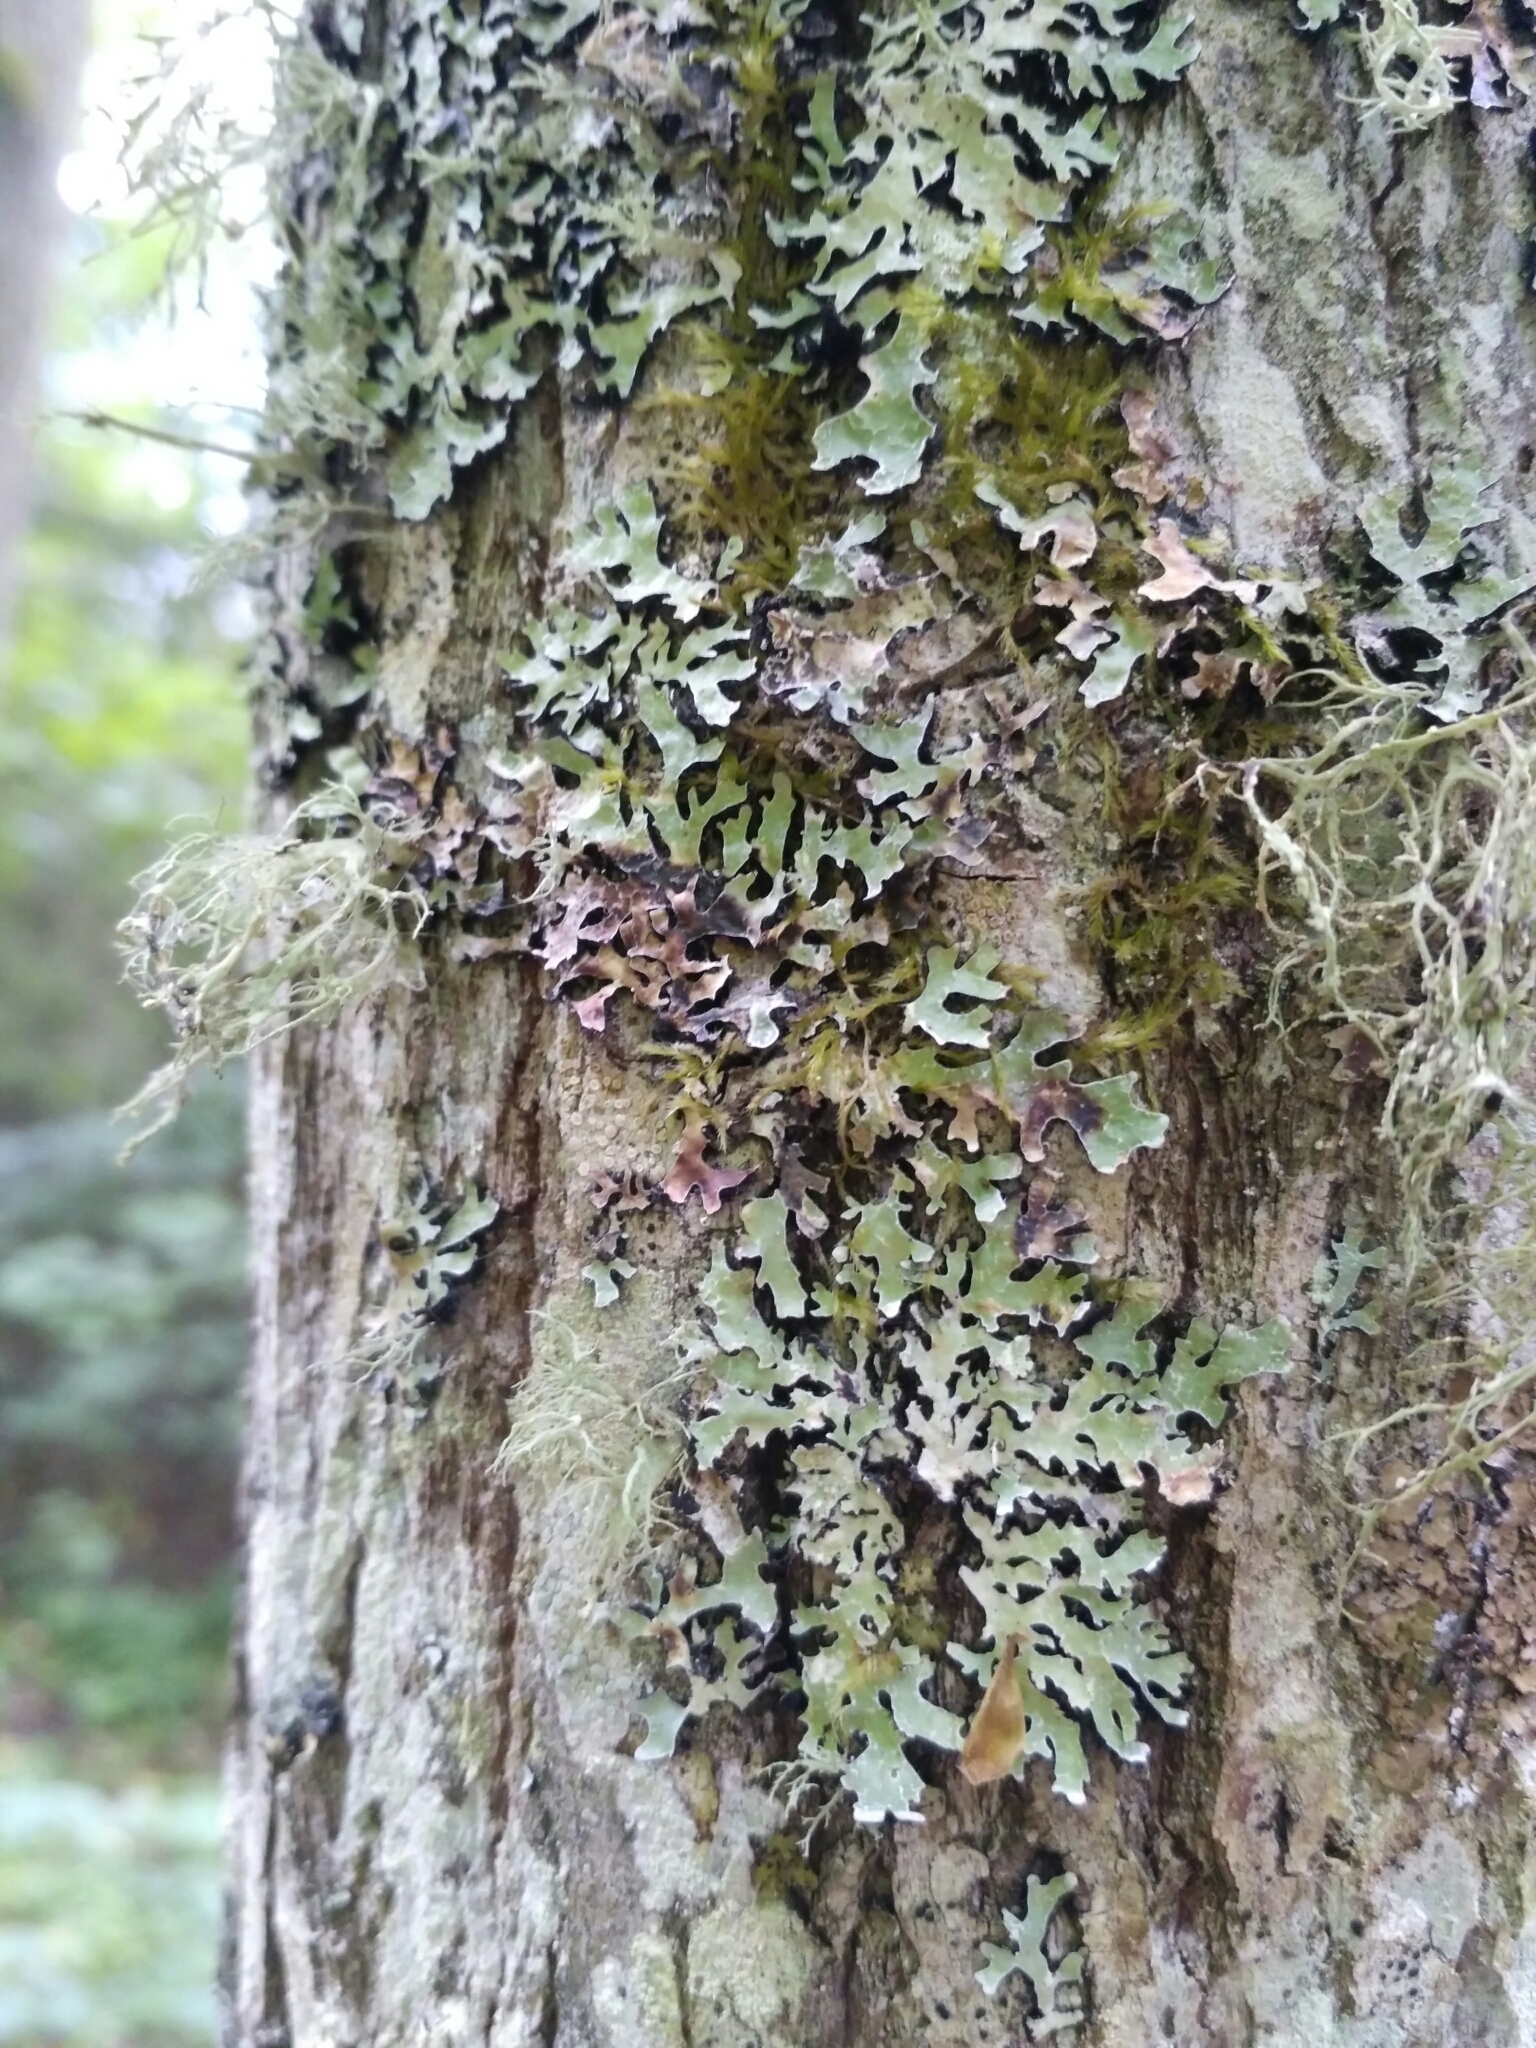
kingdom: Fungi
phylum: Ascomycota
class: Lecanoromycetes
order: Lecanorales
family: Parmeliaceae
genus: Parmelia
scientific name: Parmelia sulcata
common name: Netted shield lichen
